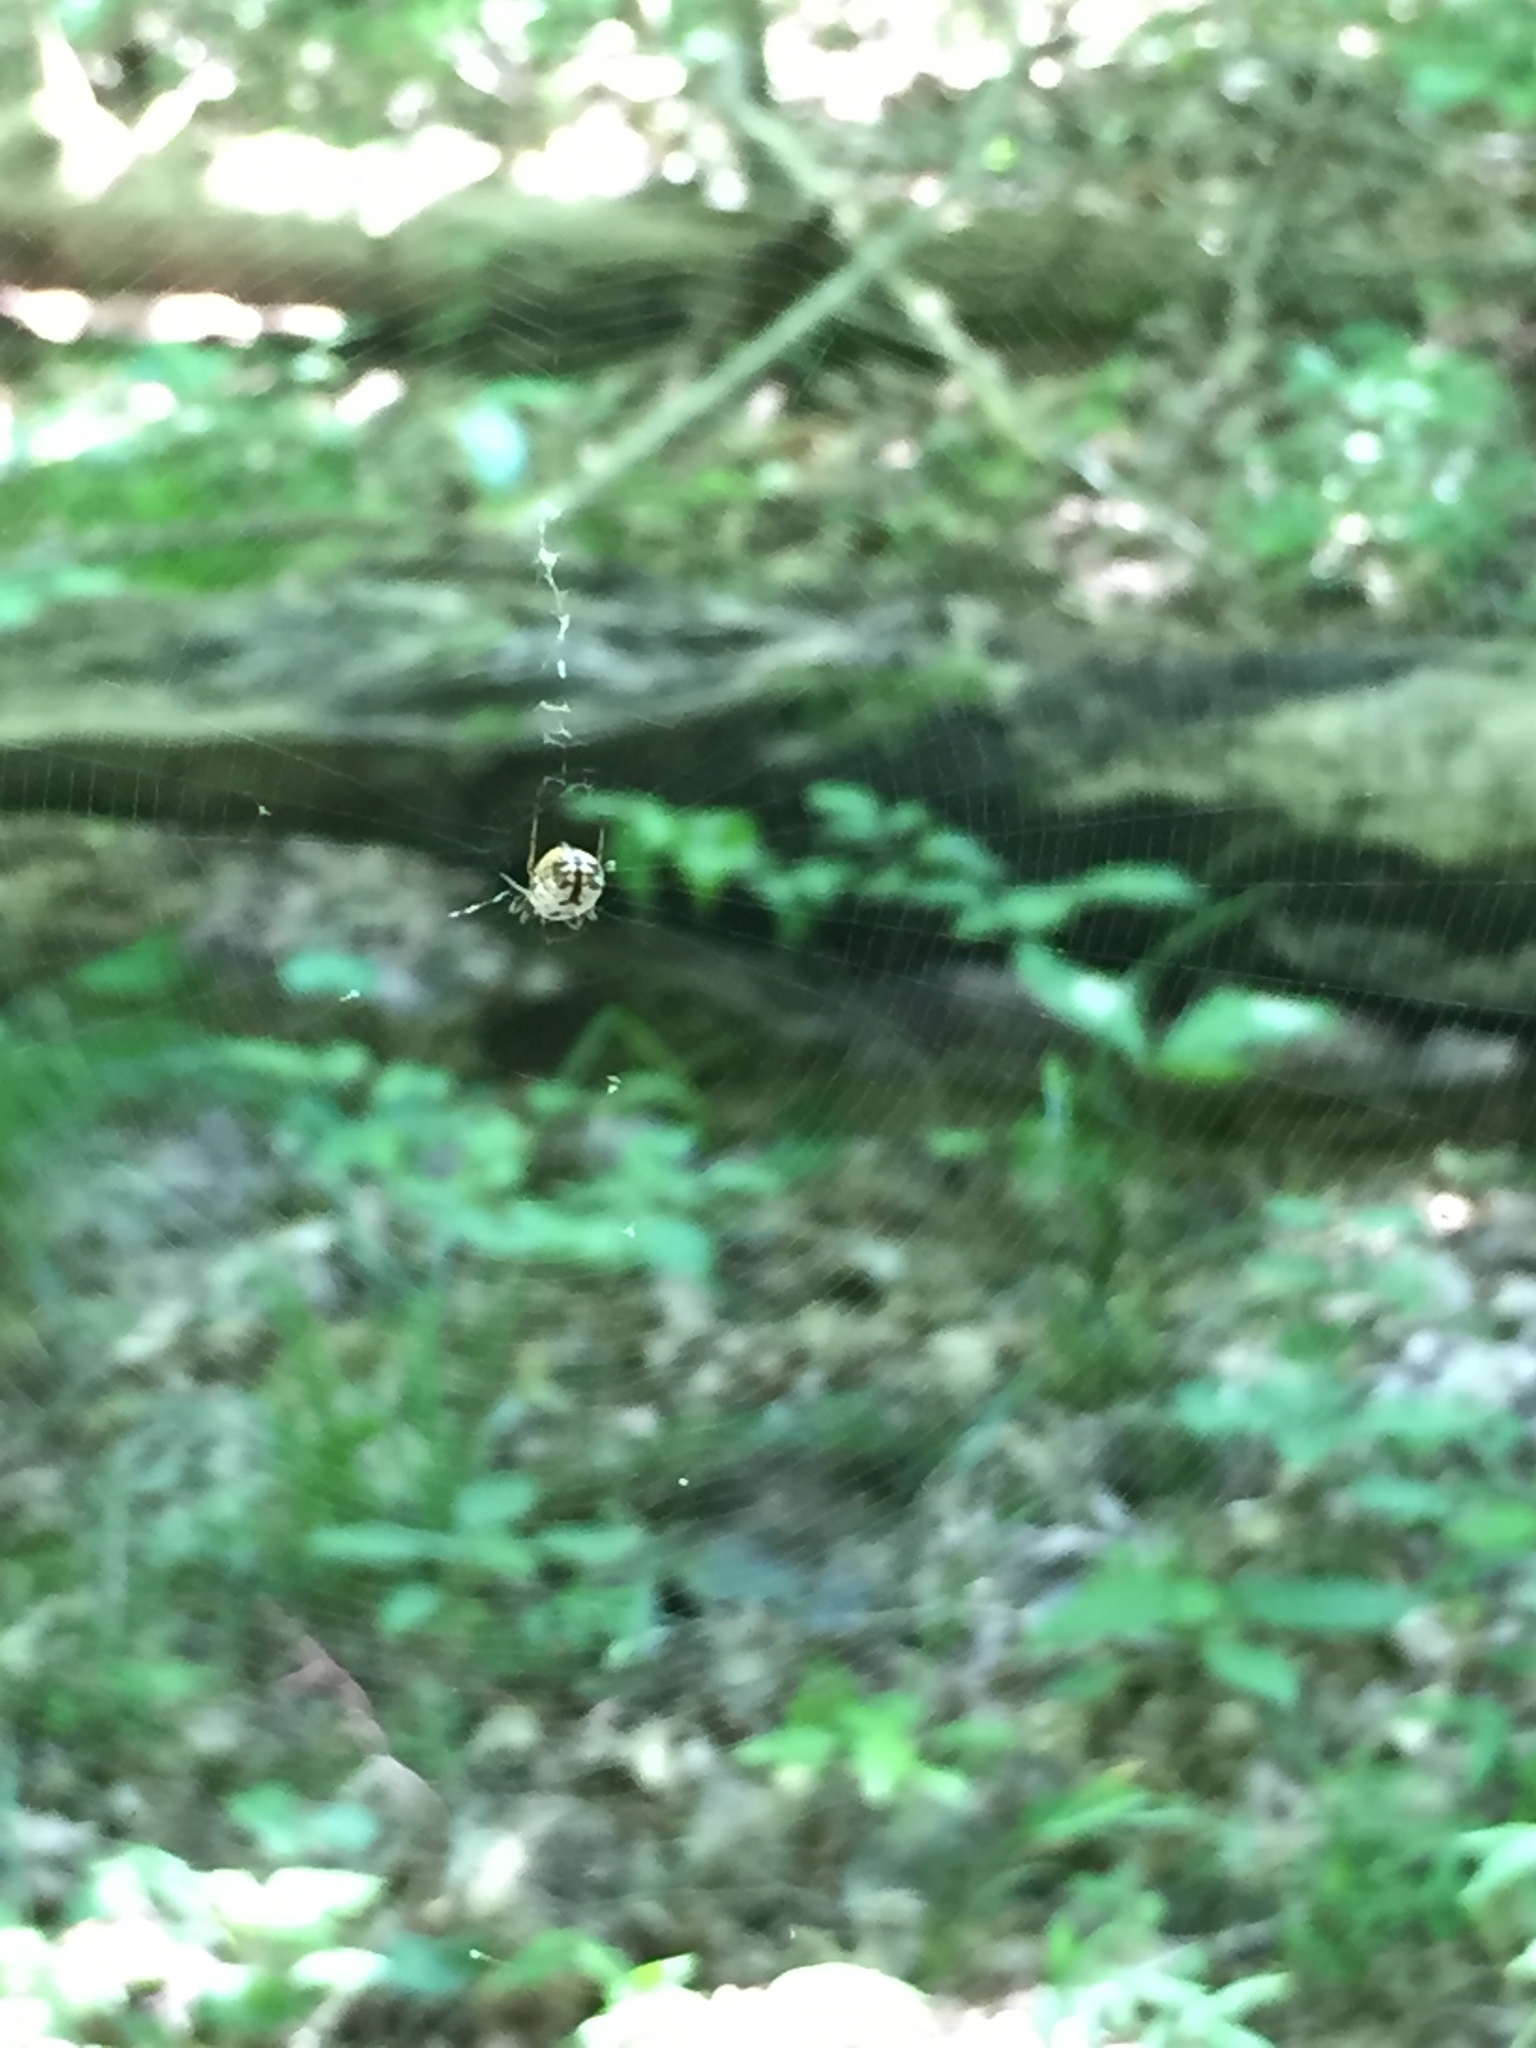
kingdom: Animalia
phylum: Arthropoda
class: Arachnida
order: Araneae
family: Araneidae
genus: Micrathena
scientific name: Micrathena mitrata
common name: Orb weavers
